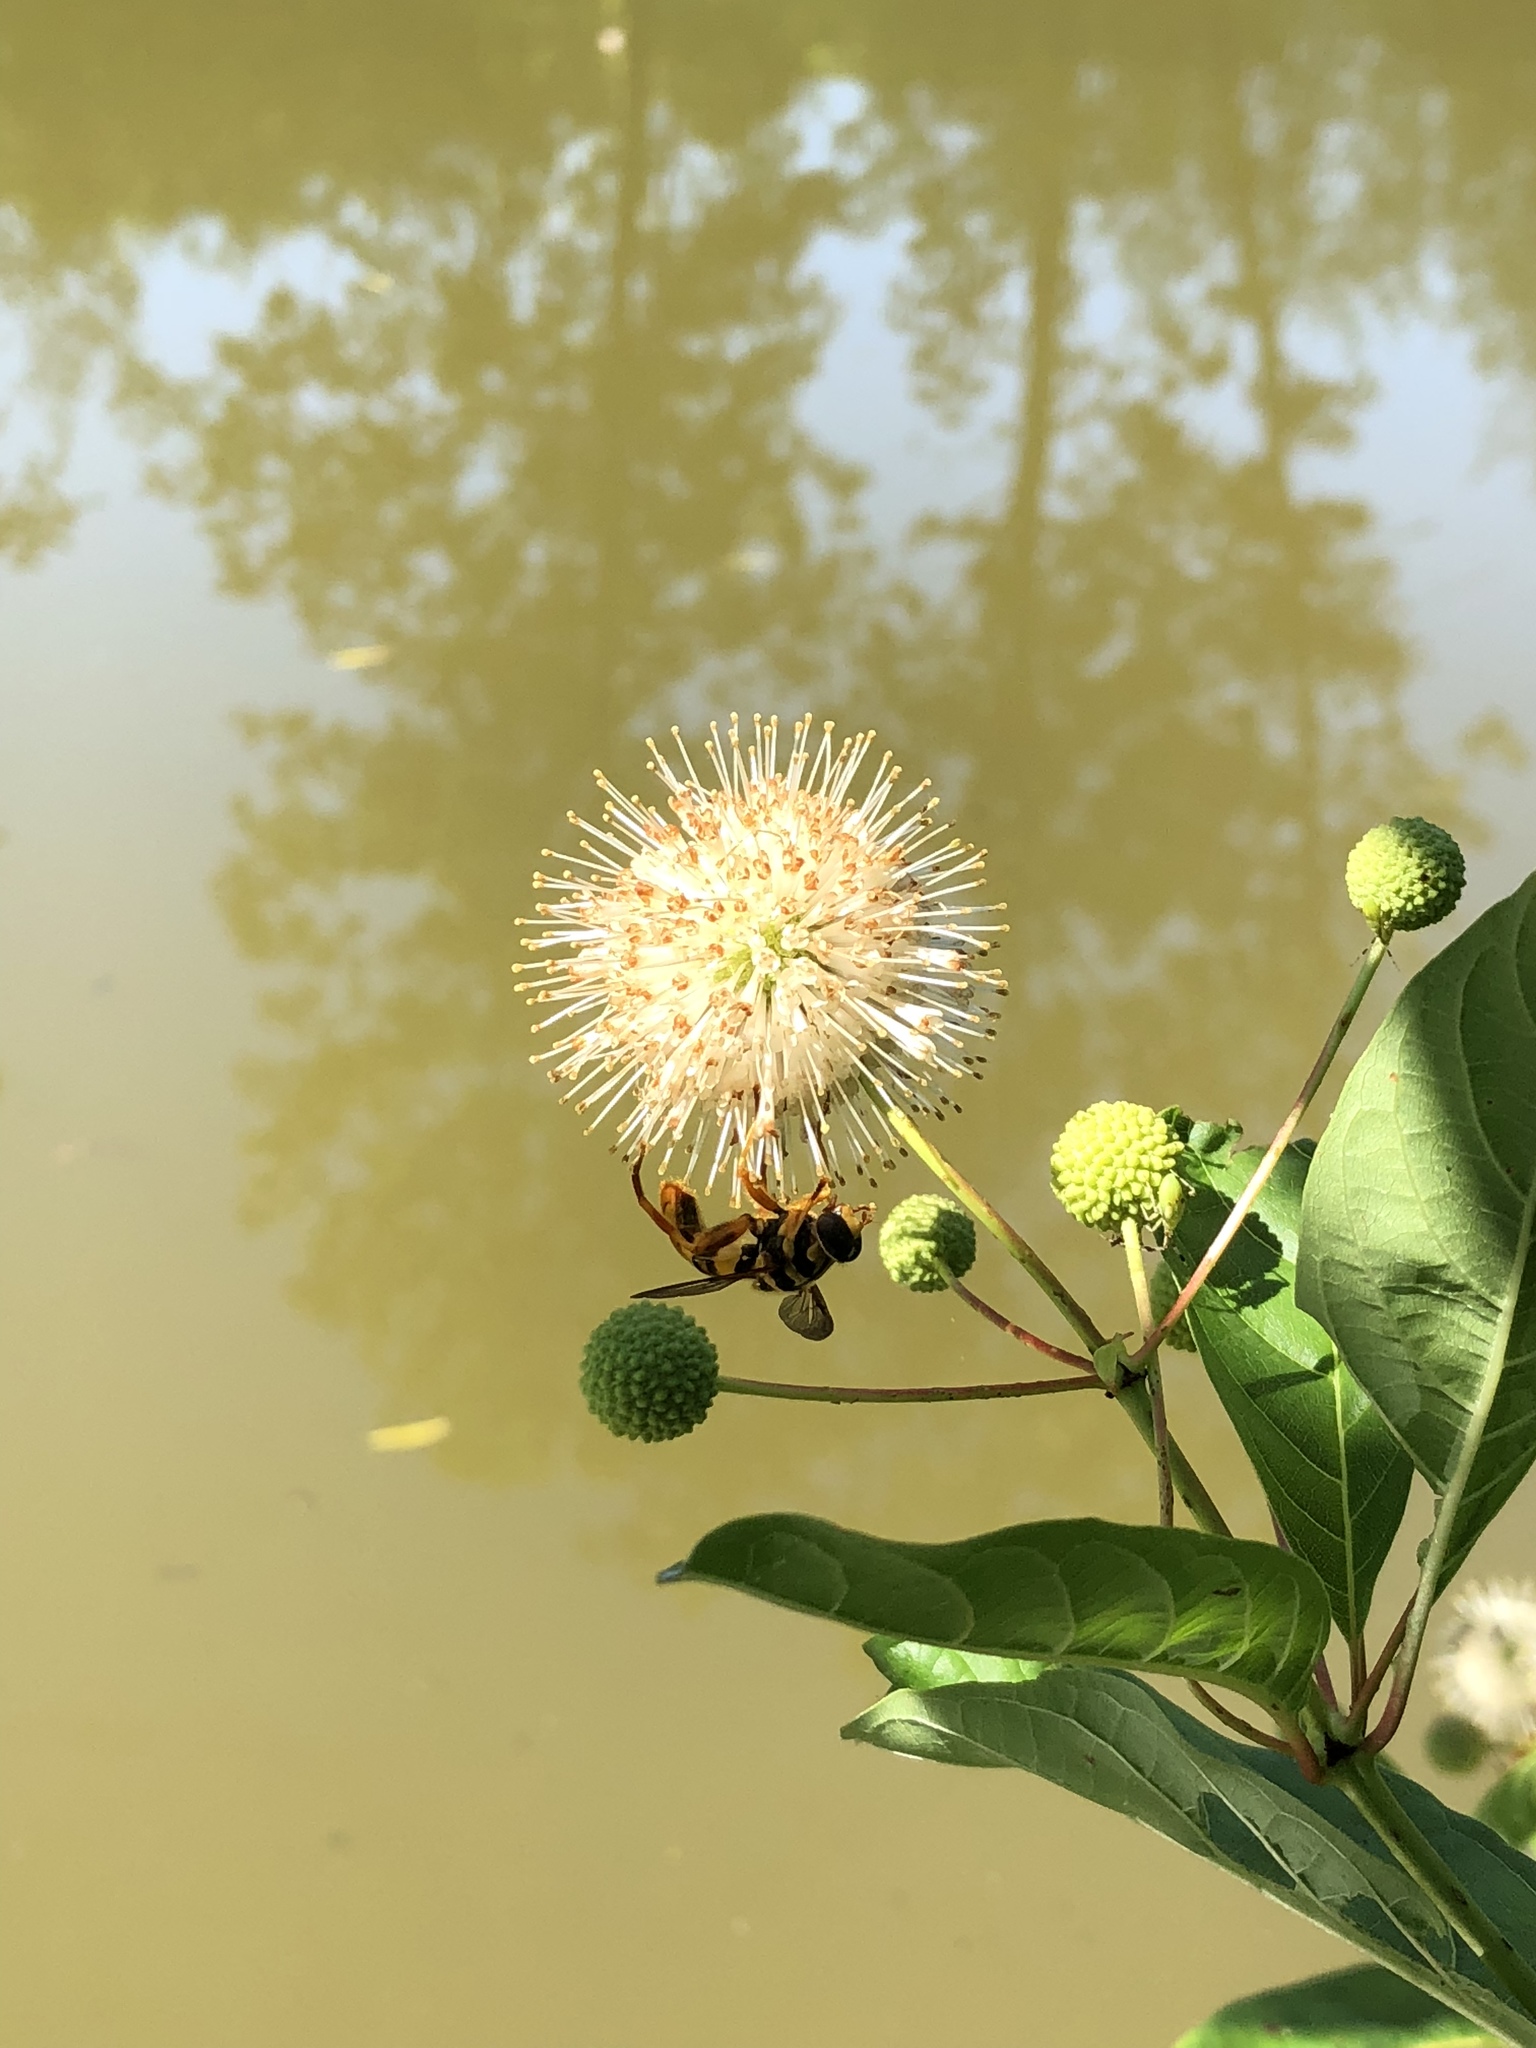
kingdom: Animalia
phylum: Arthropoda
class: Insecta
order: Diptera
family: Syrphidae
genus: Milesia
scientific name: Milesia virginiensis
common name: Virginia giant
